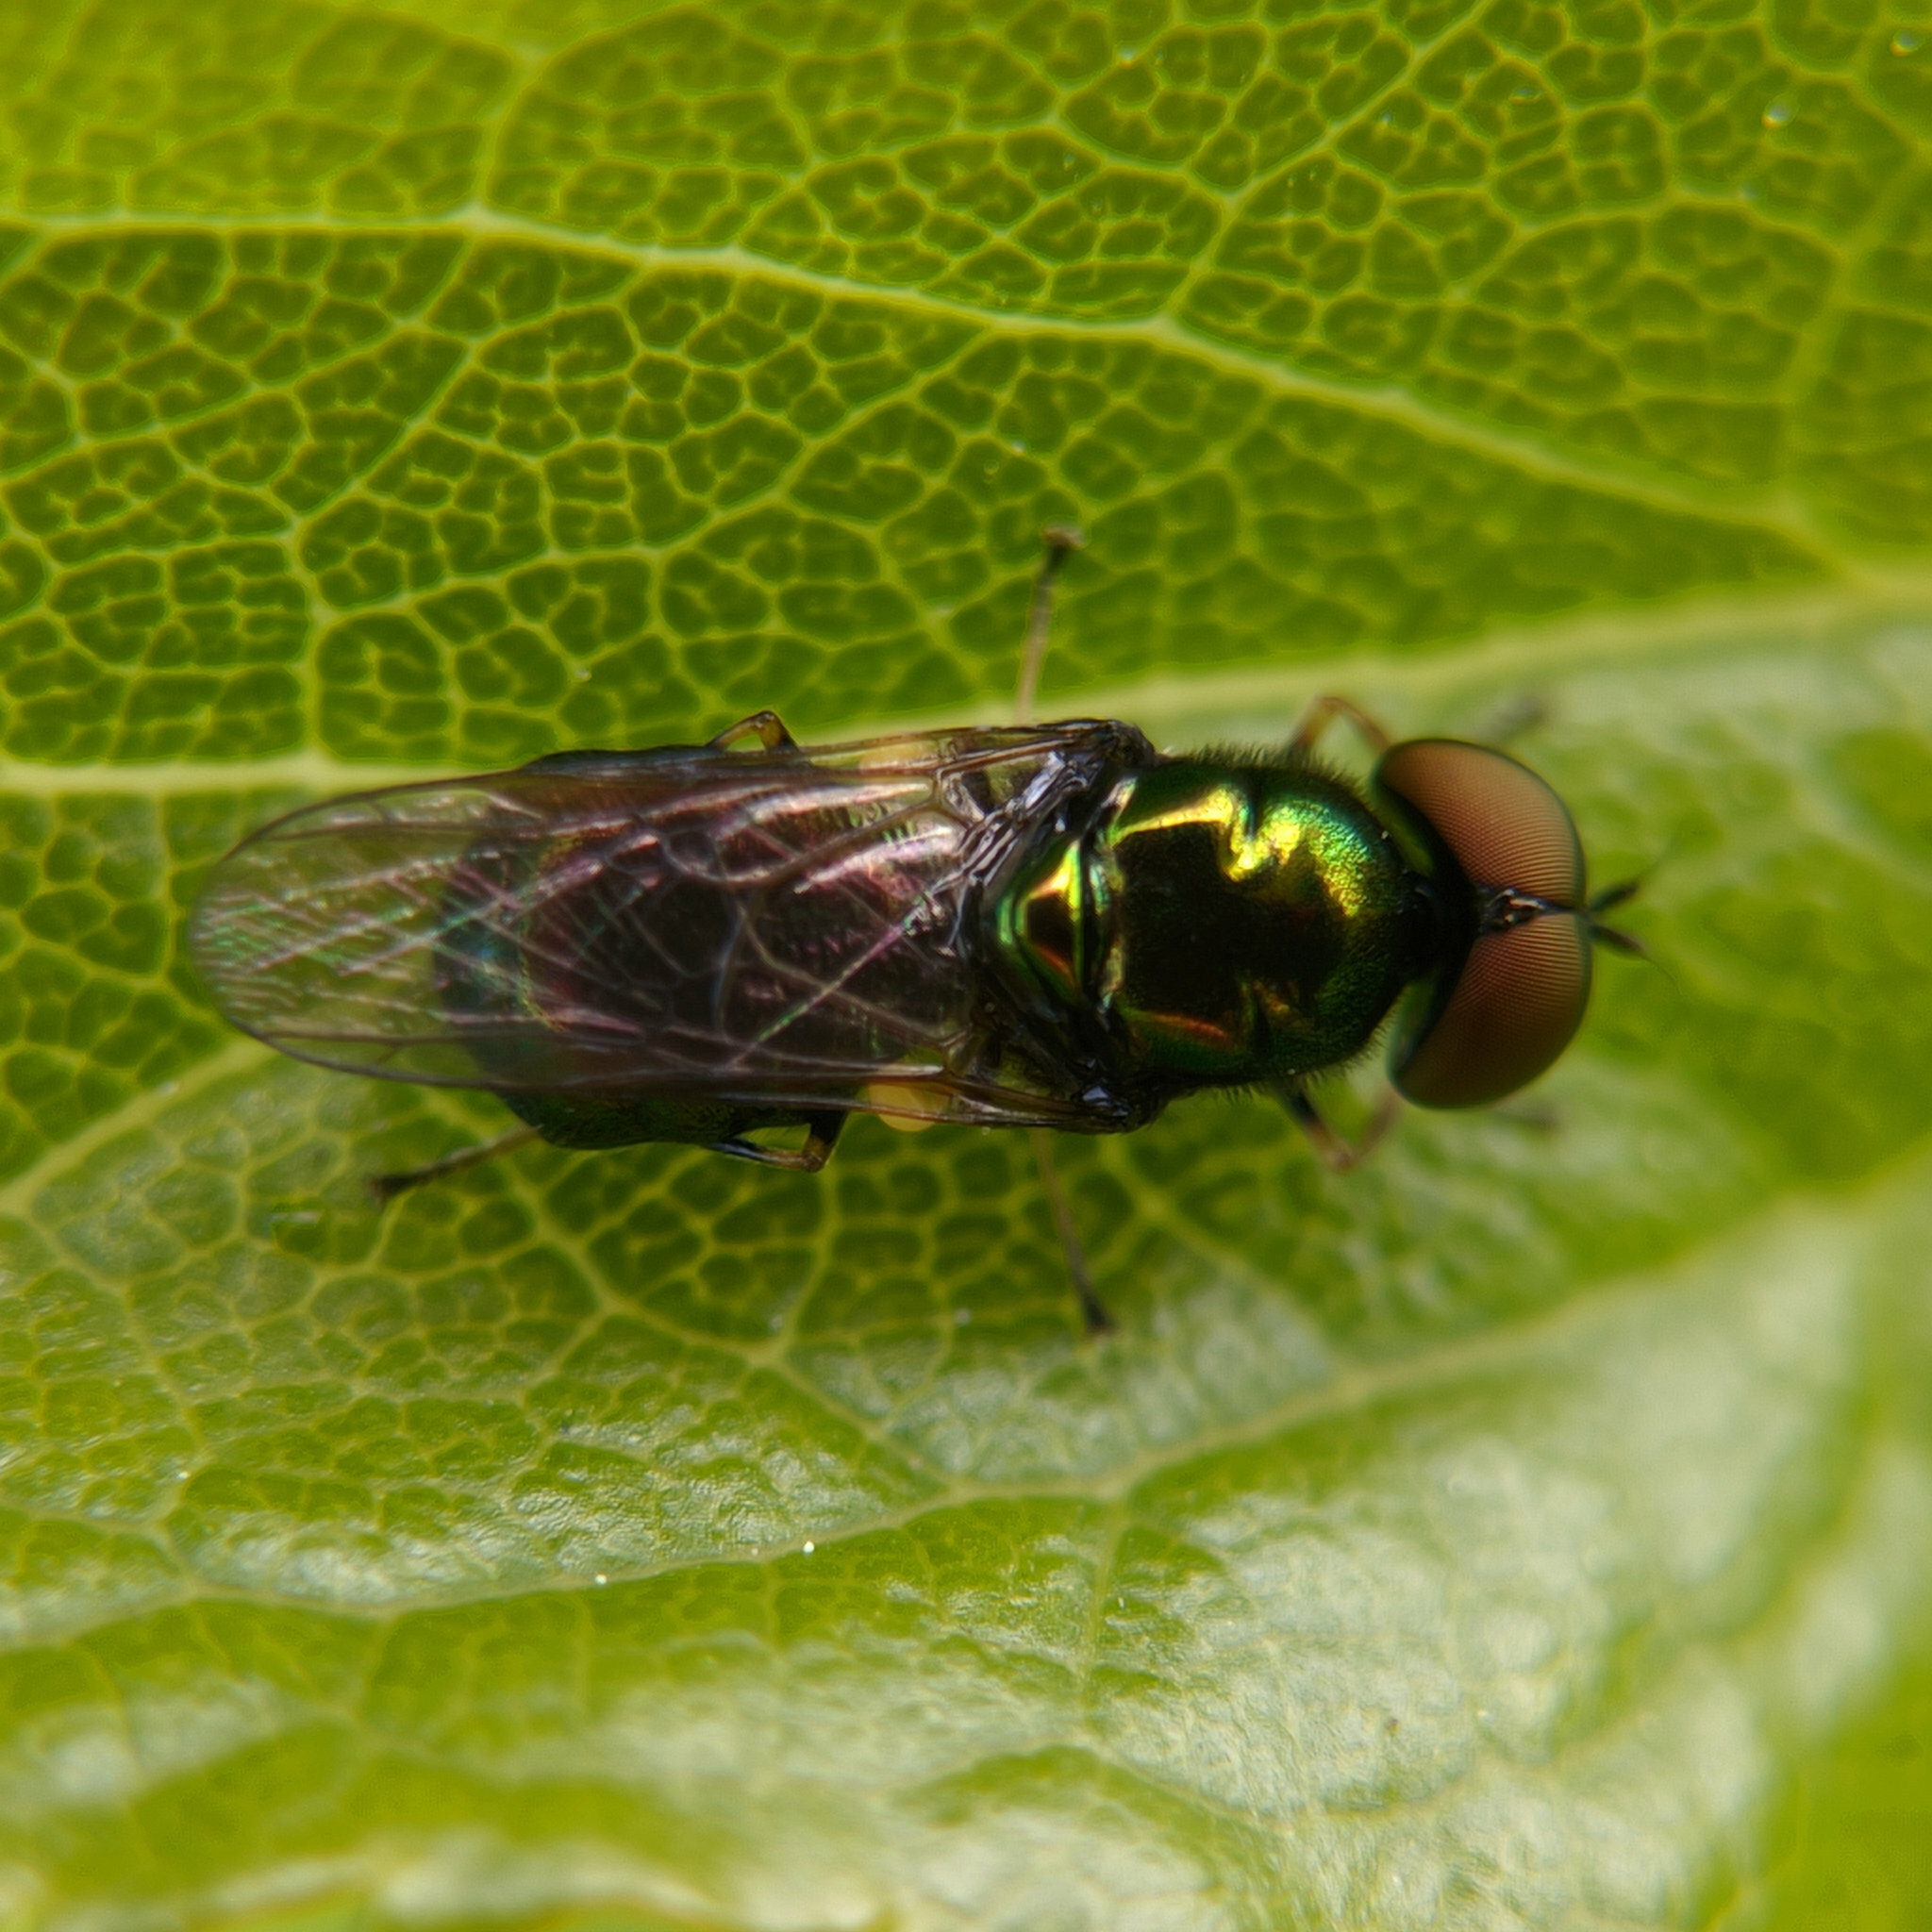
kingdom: Animalia
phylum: Arthropoda
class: Insecta
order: Diptera
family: Stratiomyidae
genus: Microchrysa
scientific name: Microchrysa polita
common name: Black-horned gem
